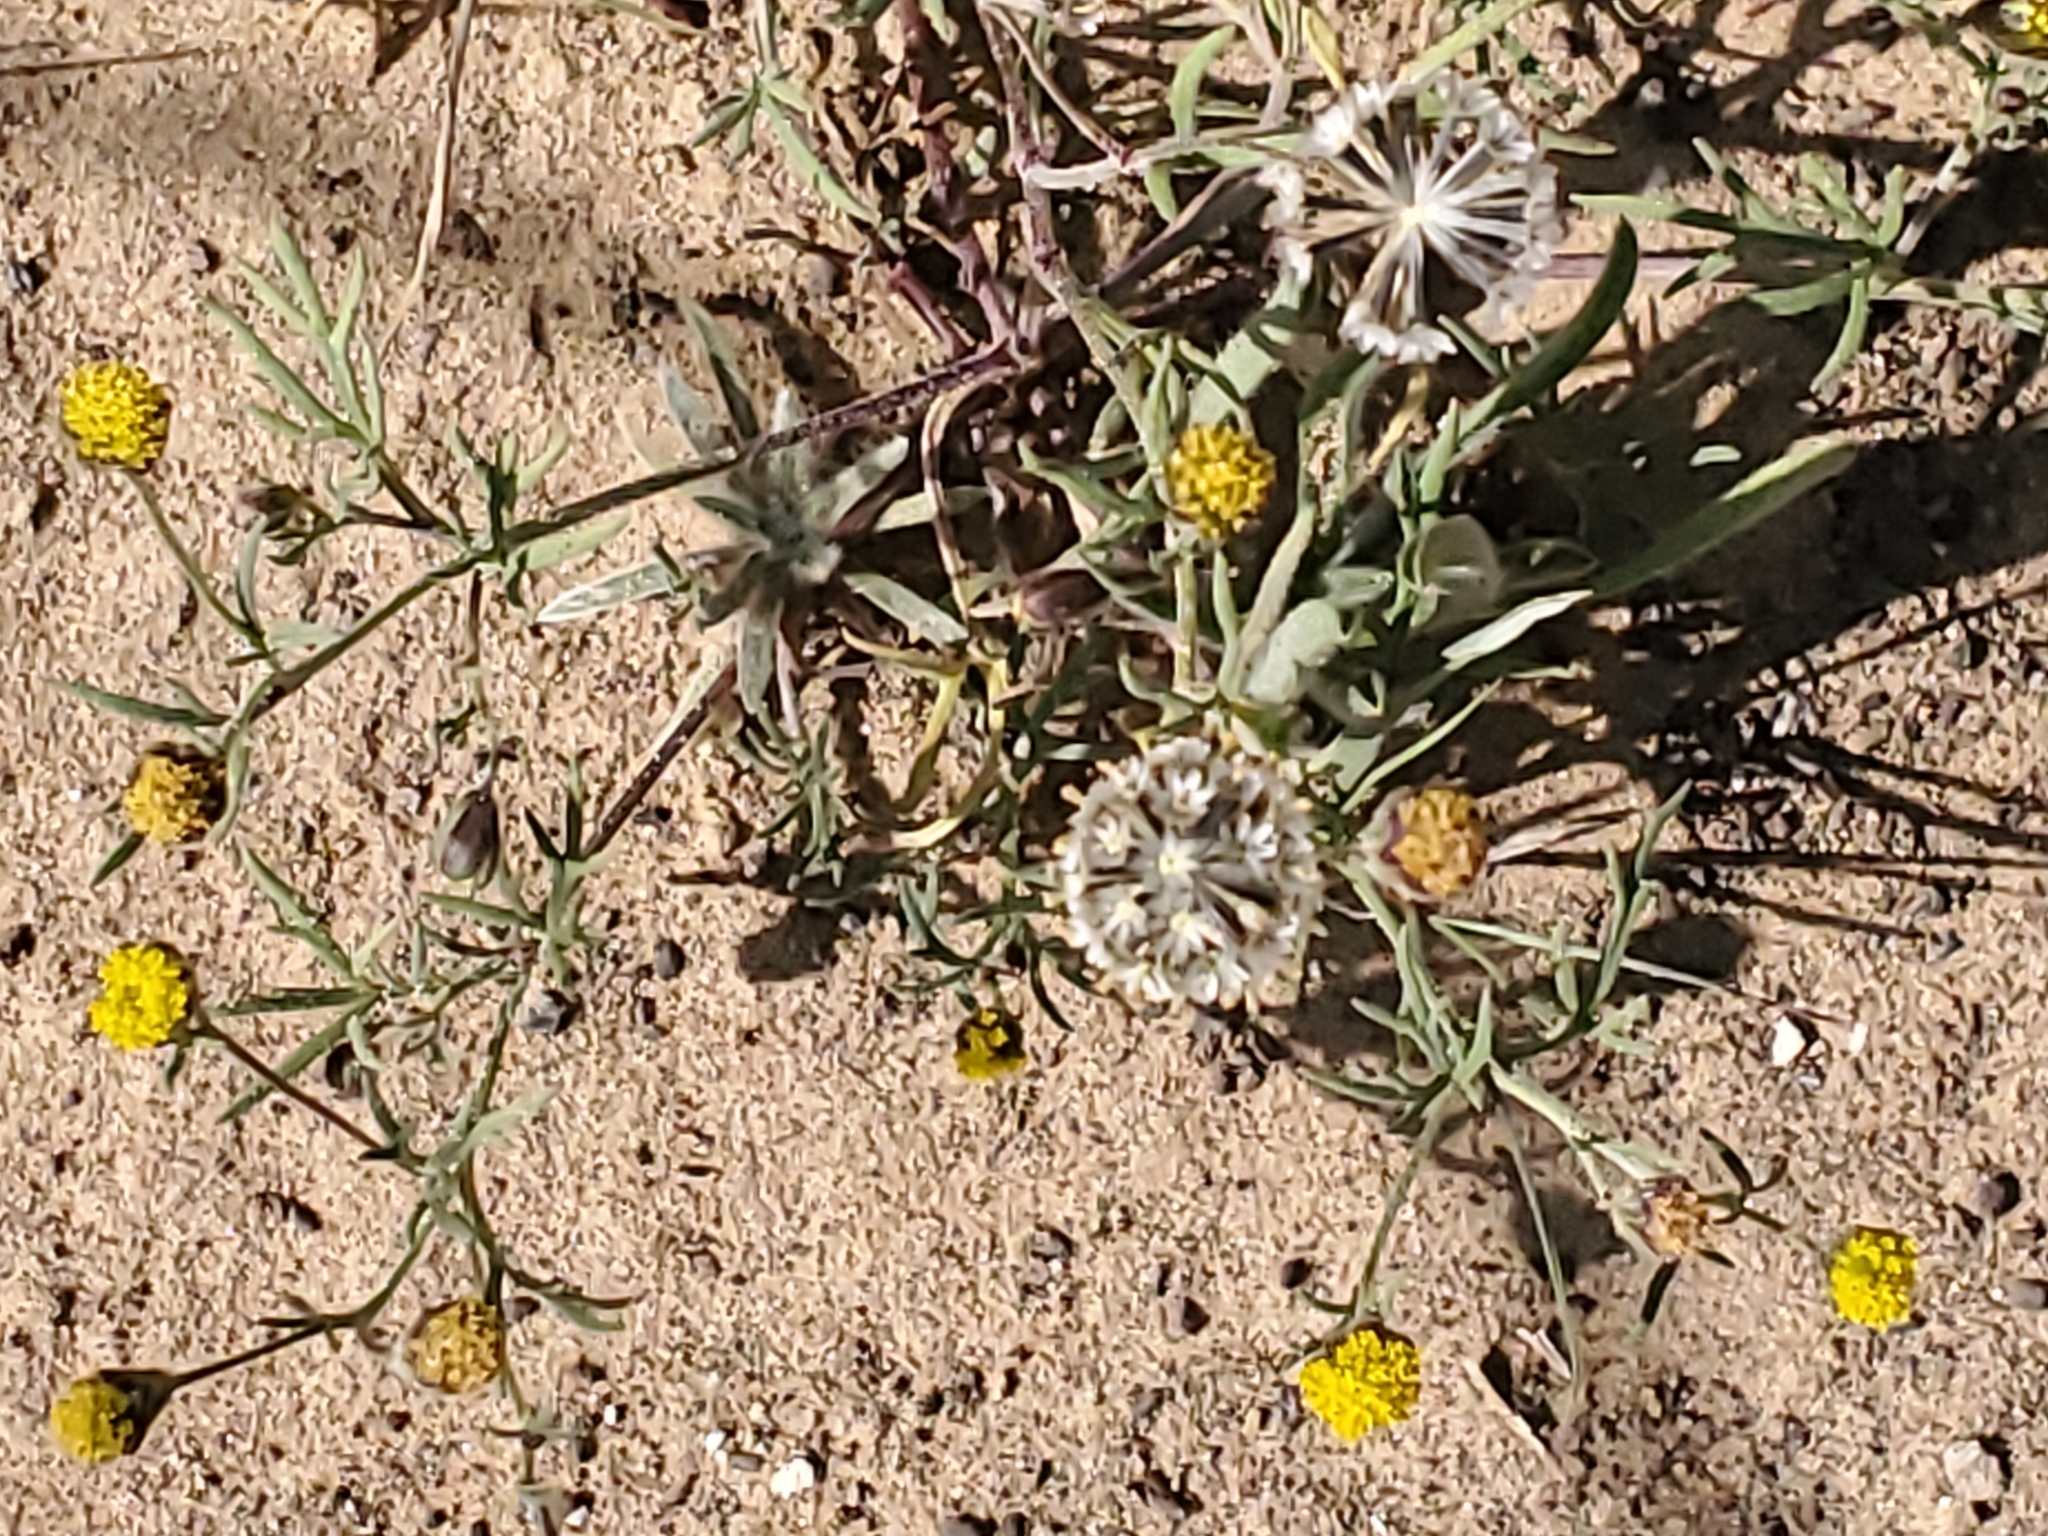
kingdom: Plantae
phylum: Tracheophyta
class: Magnoliopsida
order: Asterales
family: Asteraceae
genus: Picradeniopsis
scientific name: Picradeniopsis multiflora
